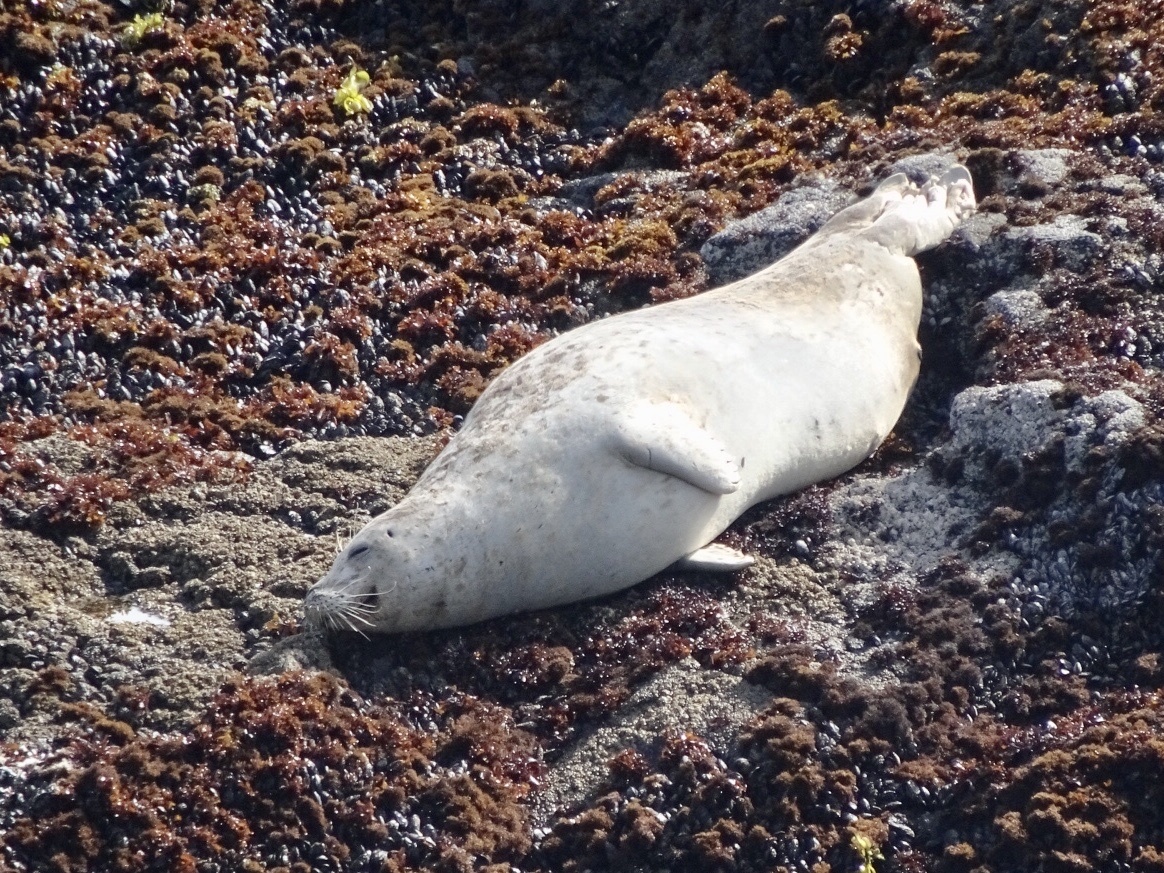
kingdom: Animalia
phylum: Chordata
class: Mammalia
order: Carnivora
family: Phocidae
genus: Phoca
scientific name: Phoca vitulina
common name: Harbor seal
